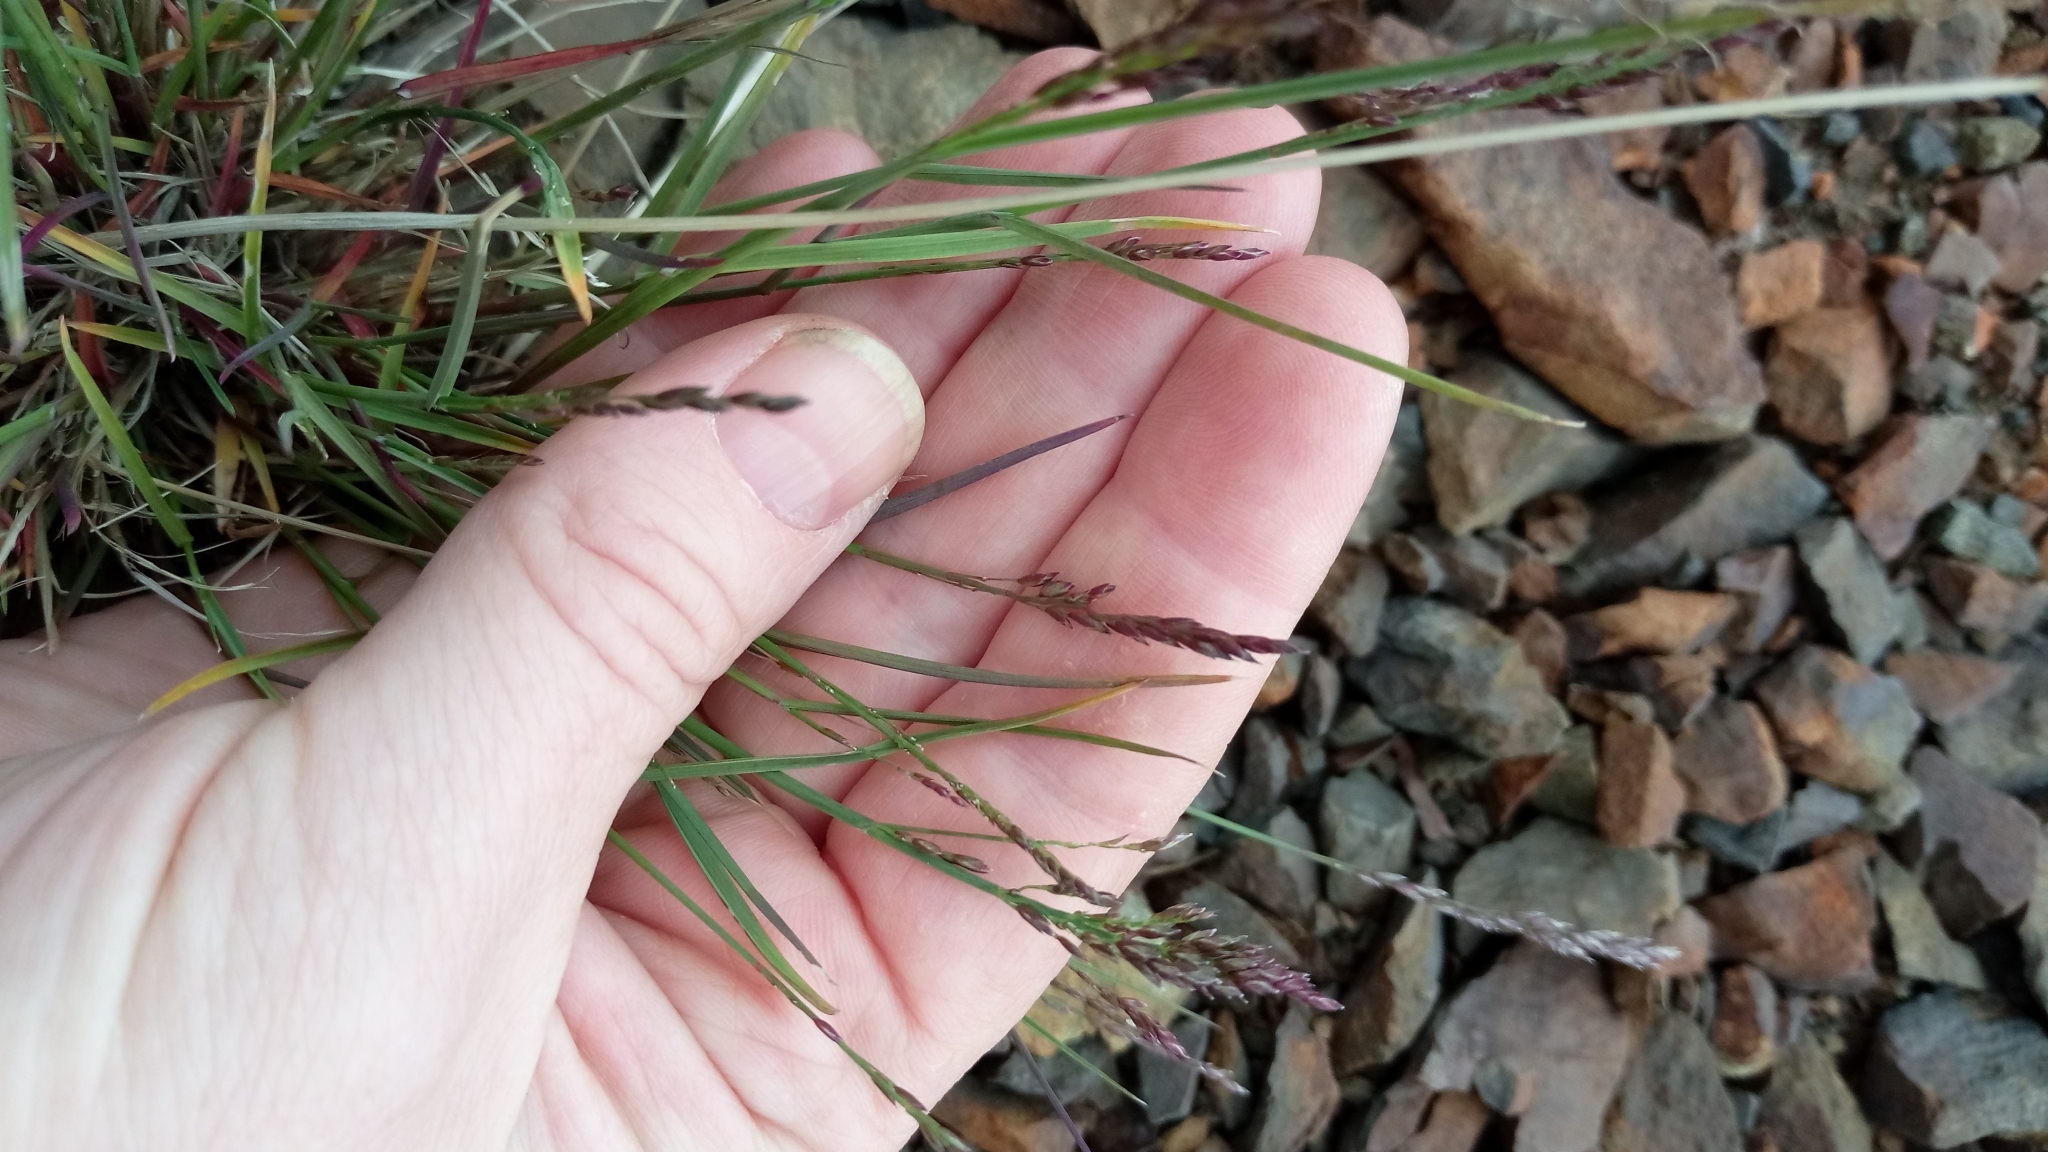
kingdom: Plantae
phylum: Tracheophyta
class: Liliopsida
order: Poales
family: Poaceae
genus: Poa
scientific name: Poa glauca
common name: Glaucous bluegrass
